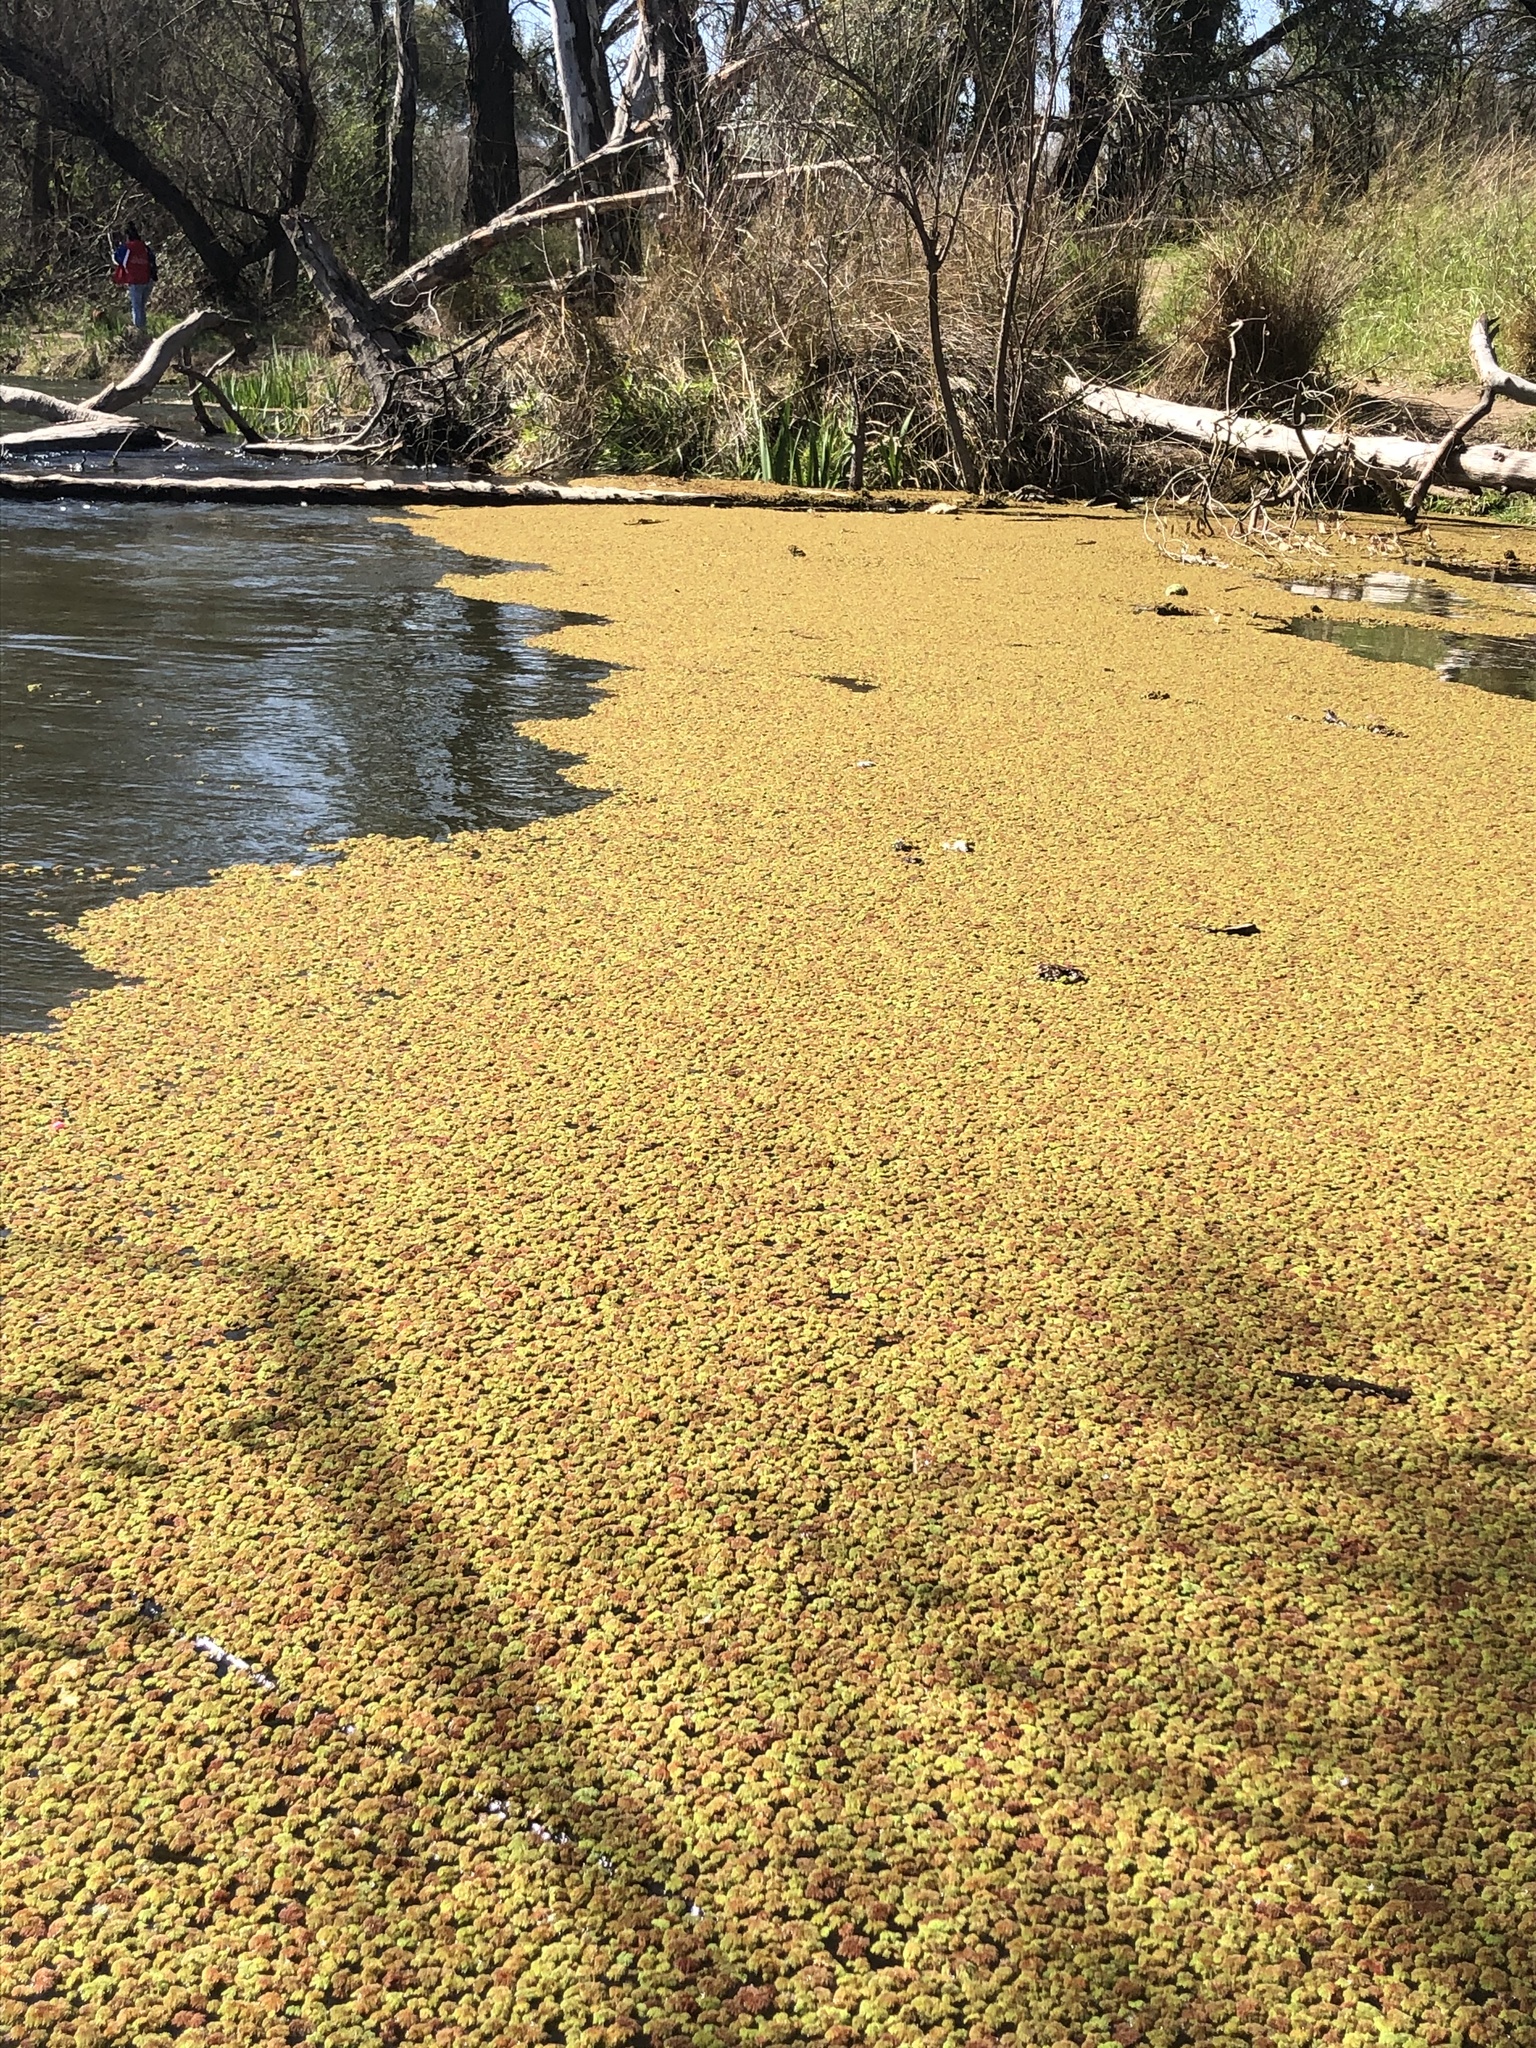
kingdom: Plantae
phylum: Tracheophyta
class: Polypodiopsida
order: Salviniales
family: Salviniaceae
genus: Azolla
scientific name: Azolla filiculoides
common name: Water fern
